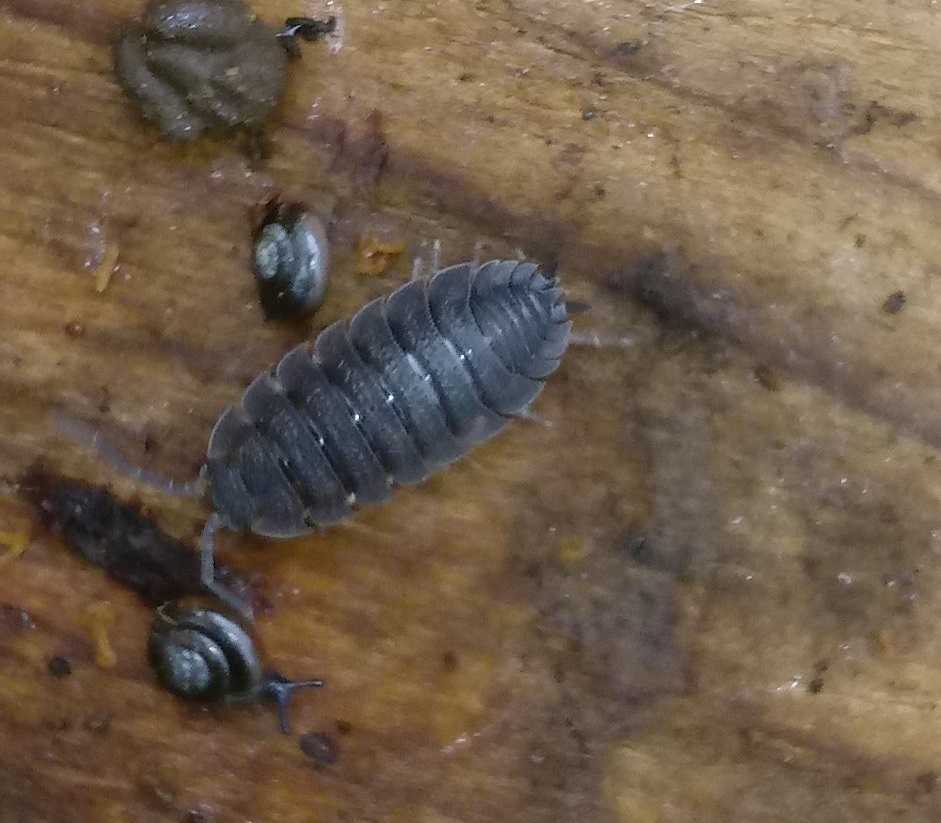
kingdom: Animalia
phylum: Arthropoda
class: Malacostraca
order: Isopoda
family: Porcellionidae
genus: Porcellio
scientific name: Porcellio scaber
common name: Common rough woodlouse
